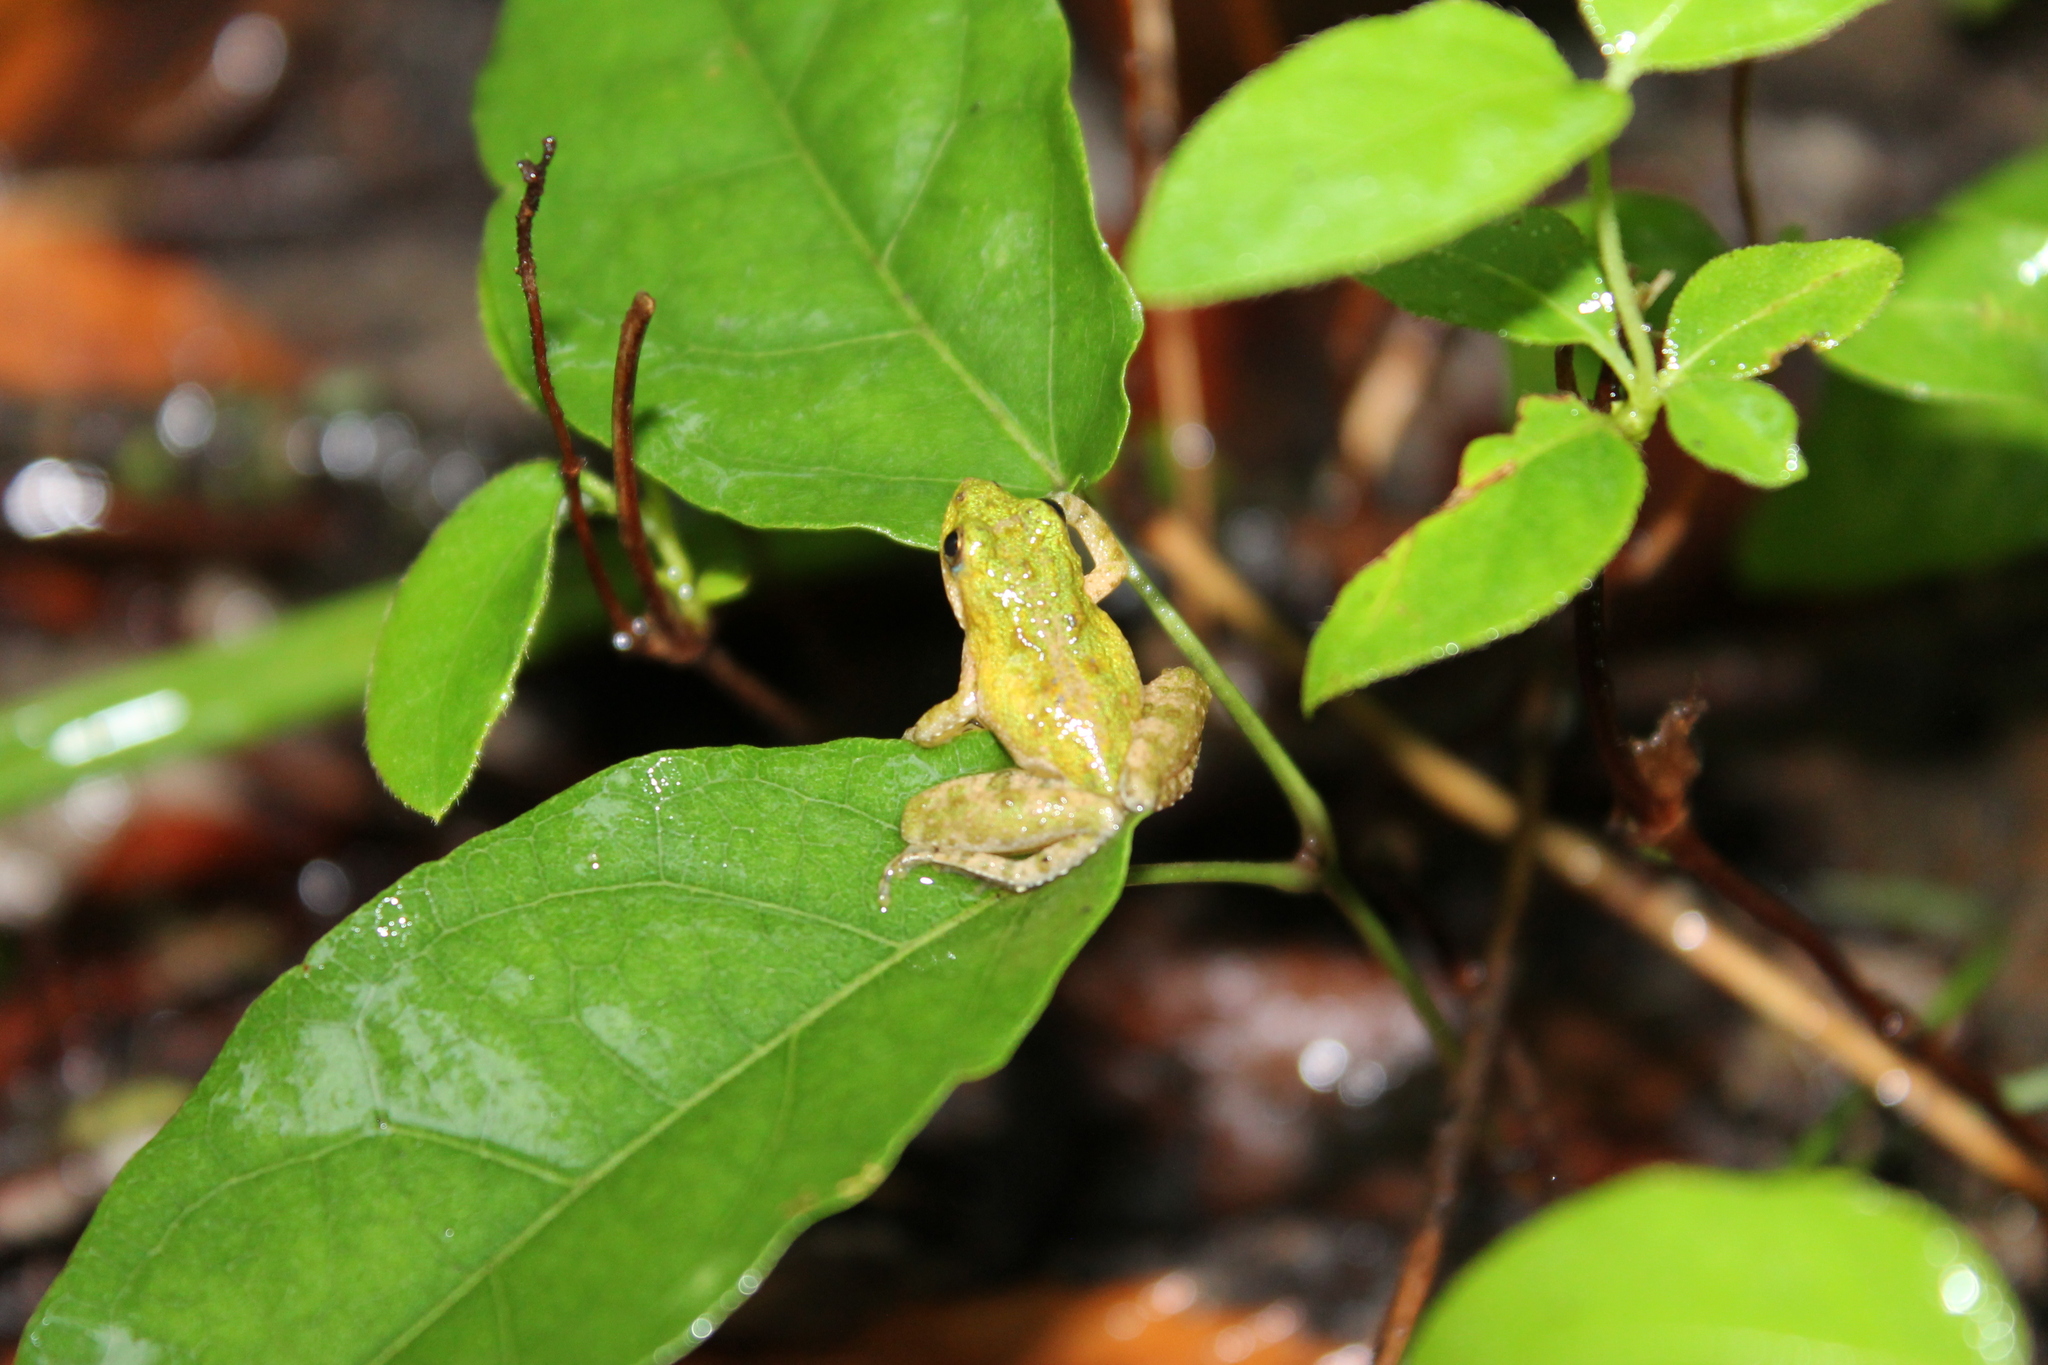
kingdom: Animalia
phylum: Chordata
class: Amphibia
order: Anura
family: Hylidae
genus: Acris
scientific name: Acris crepitans
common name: Northern cricket frog
